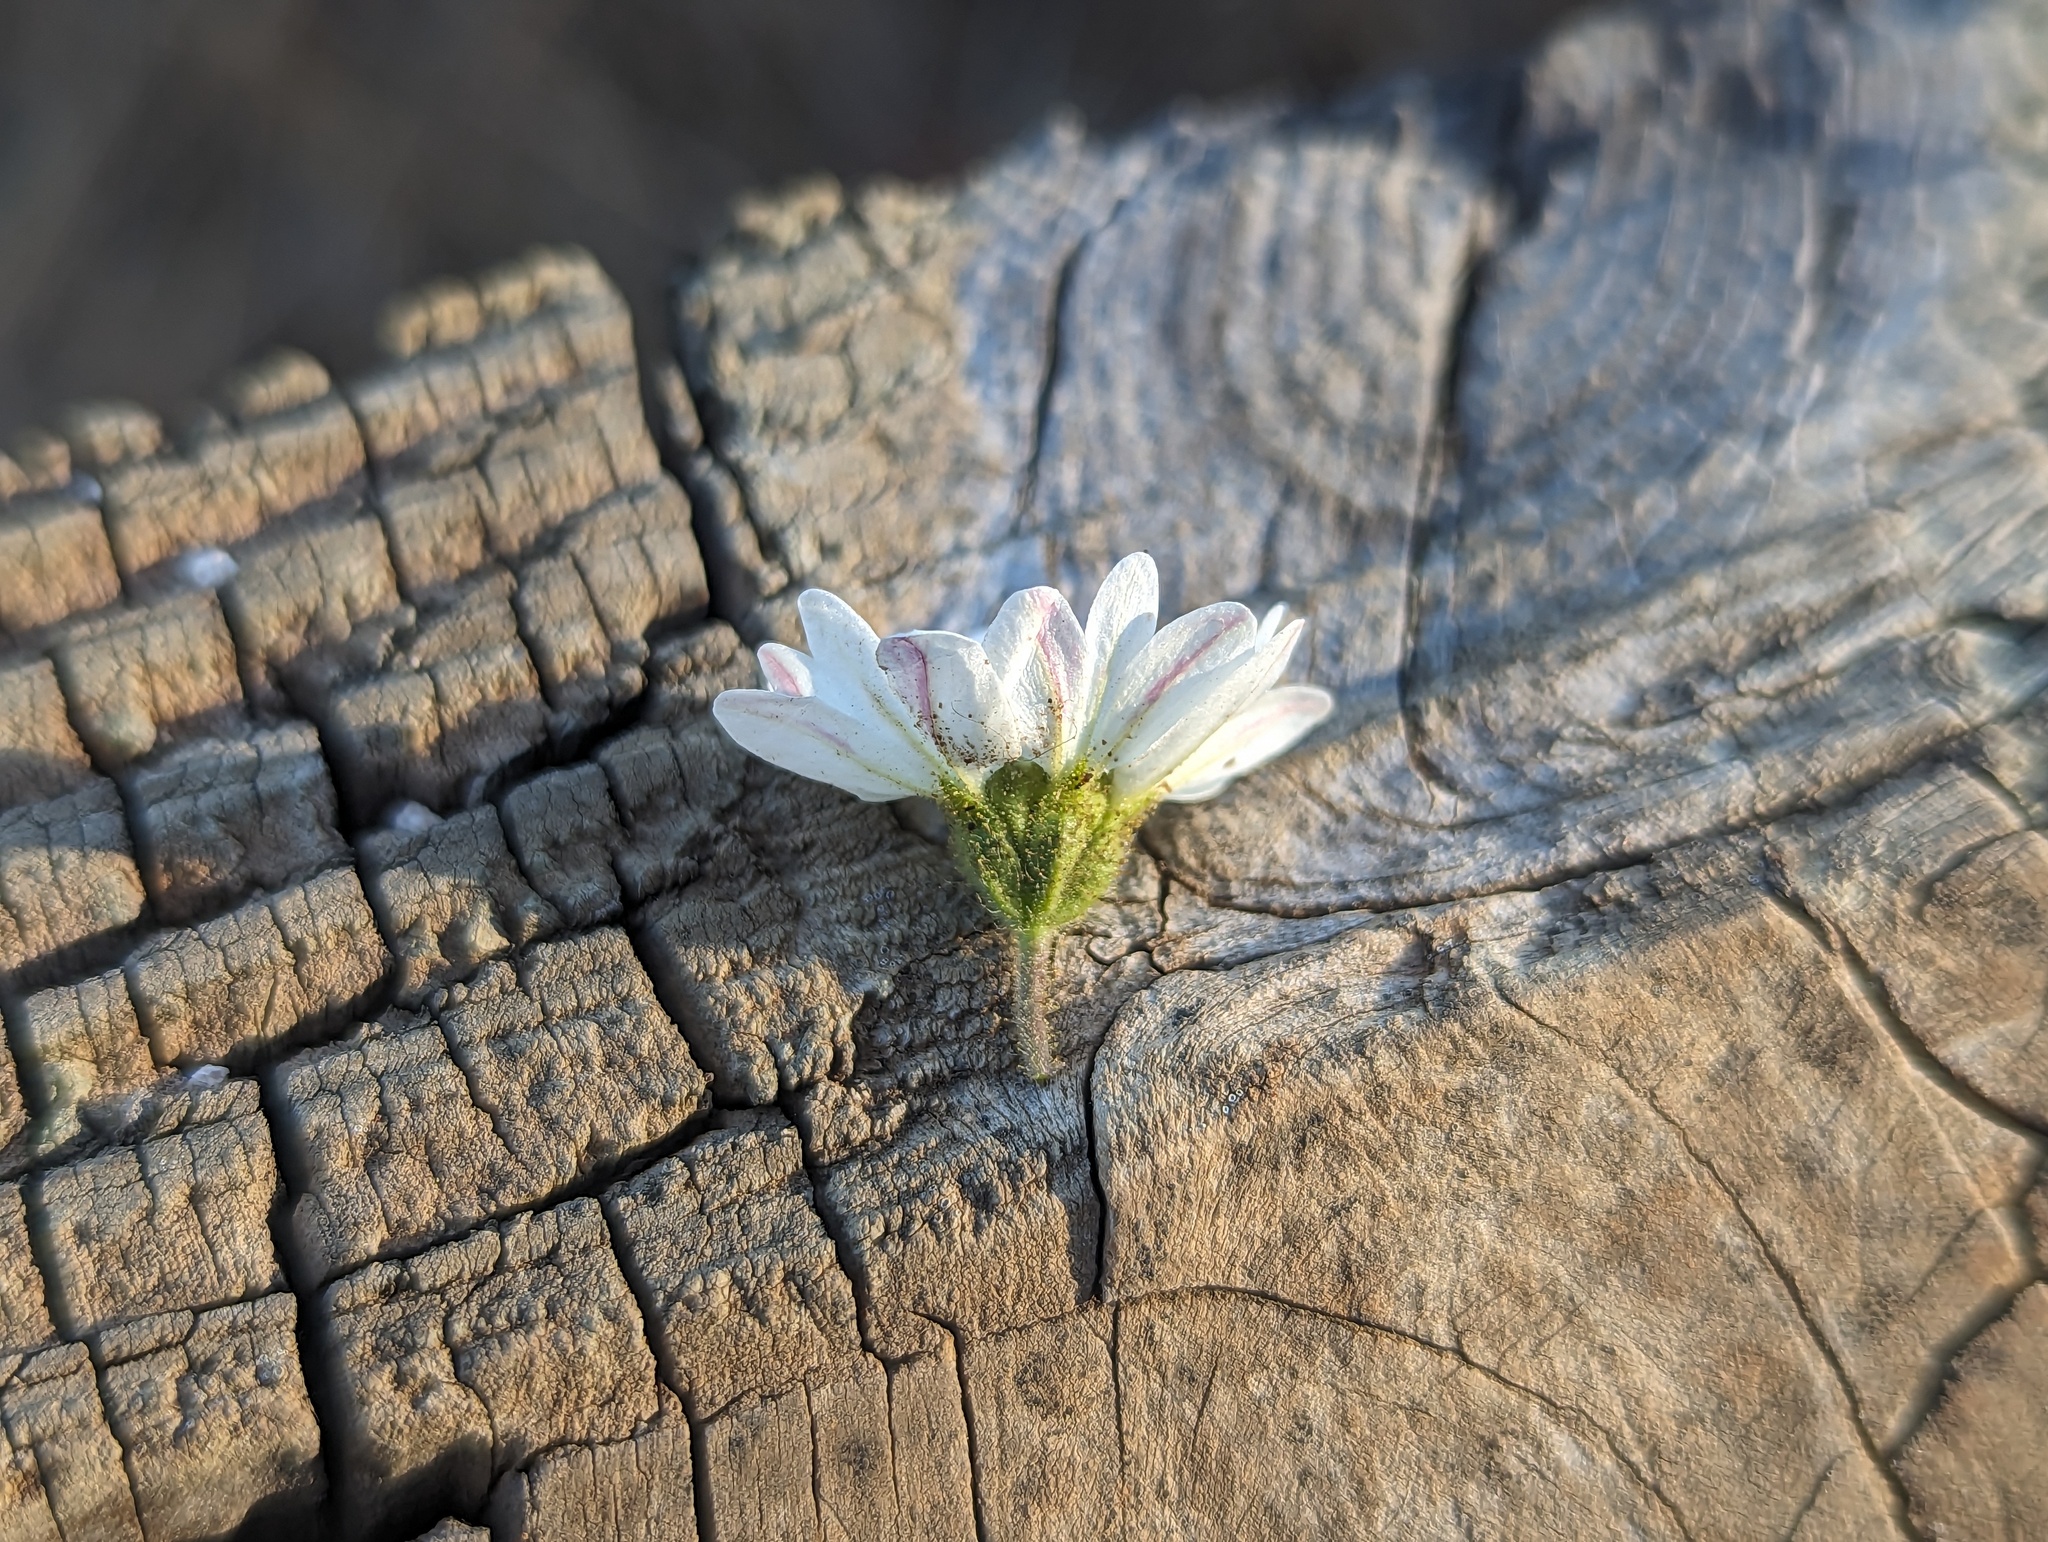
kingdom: Plantae
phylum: Tracheophyta
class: Magnoliopsida
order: Asterales
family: Asteraceae
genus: Hemizonia
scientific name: Hemizonia congesta
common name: Hayfield tarweed
